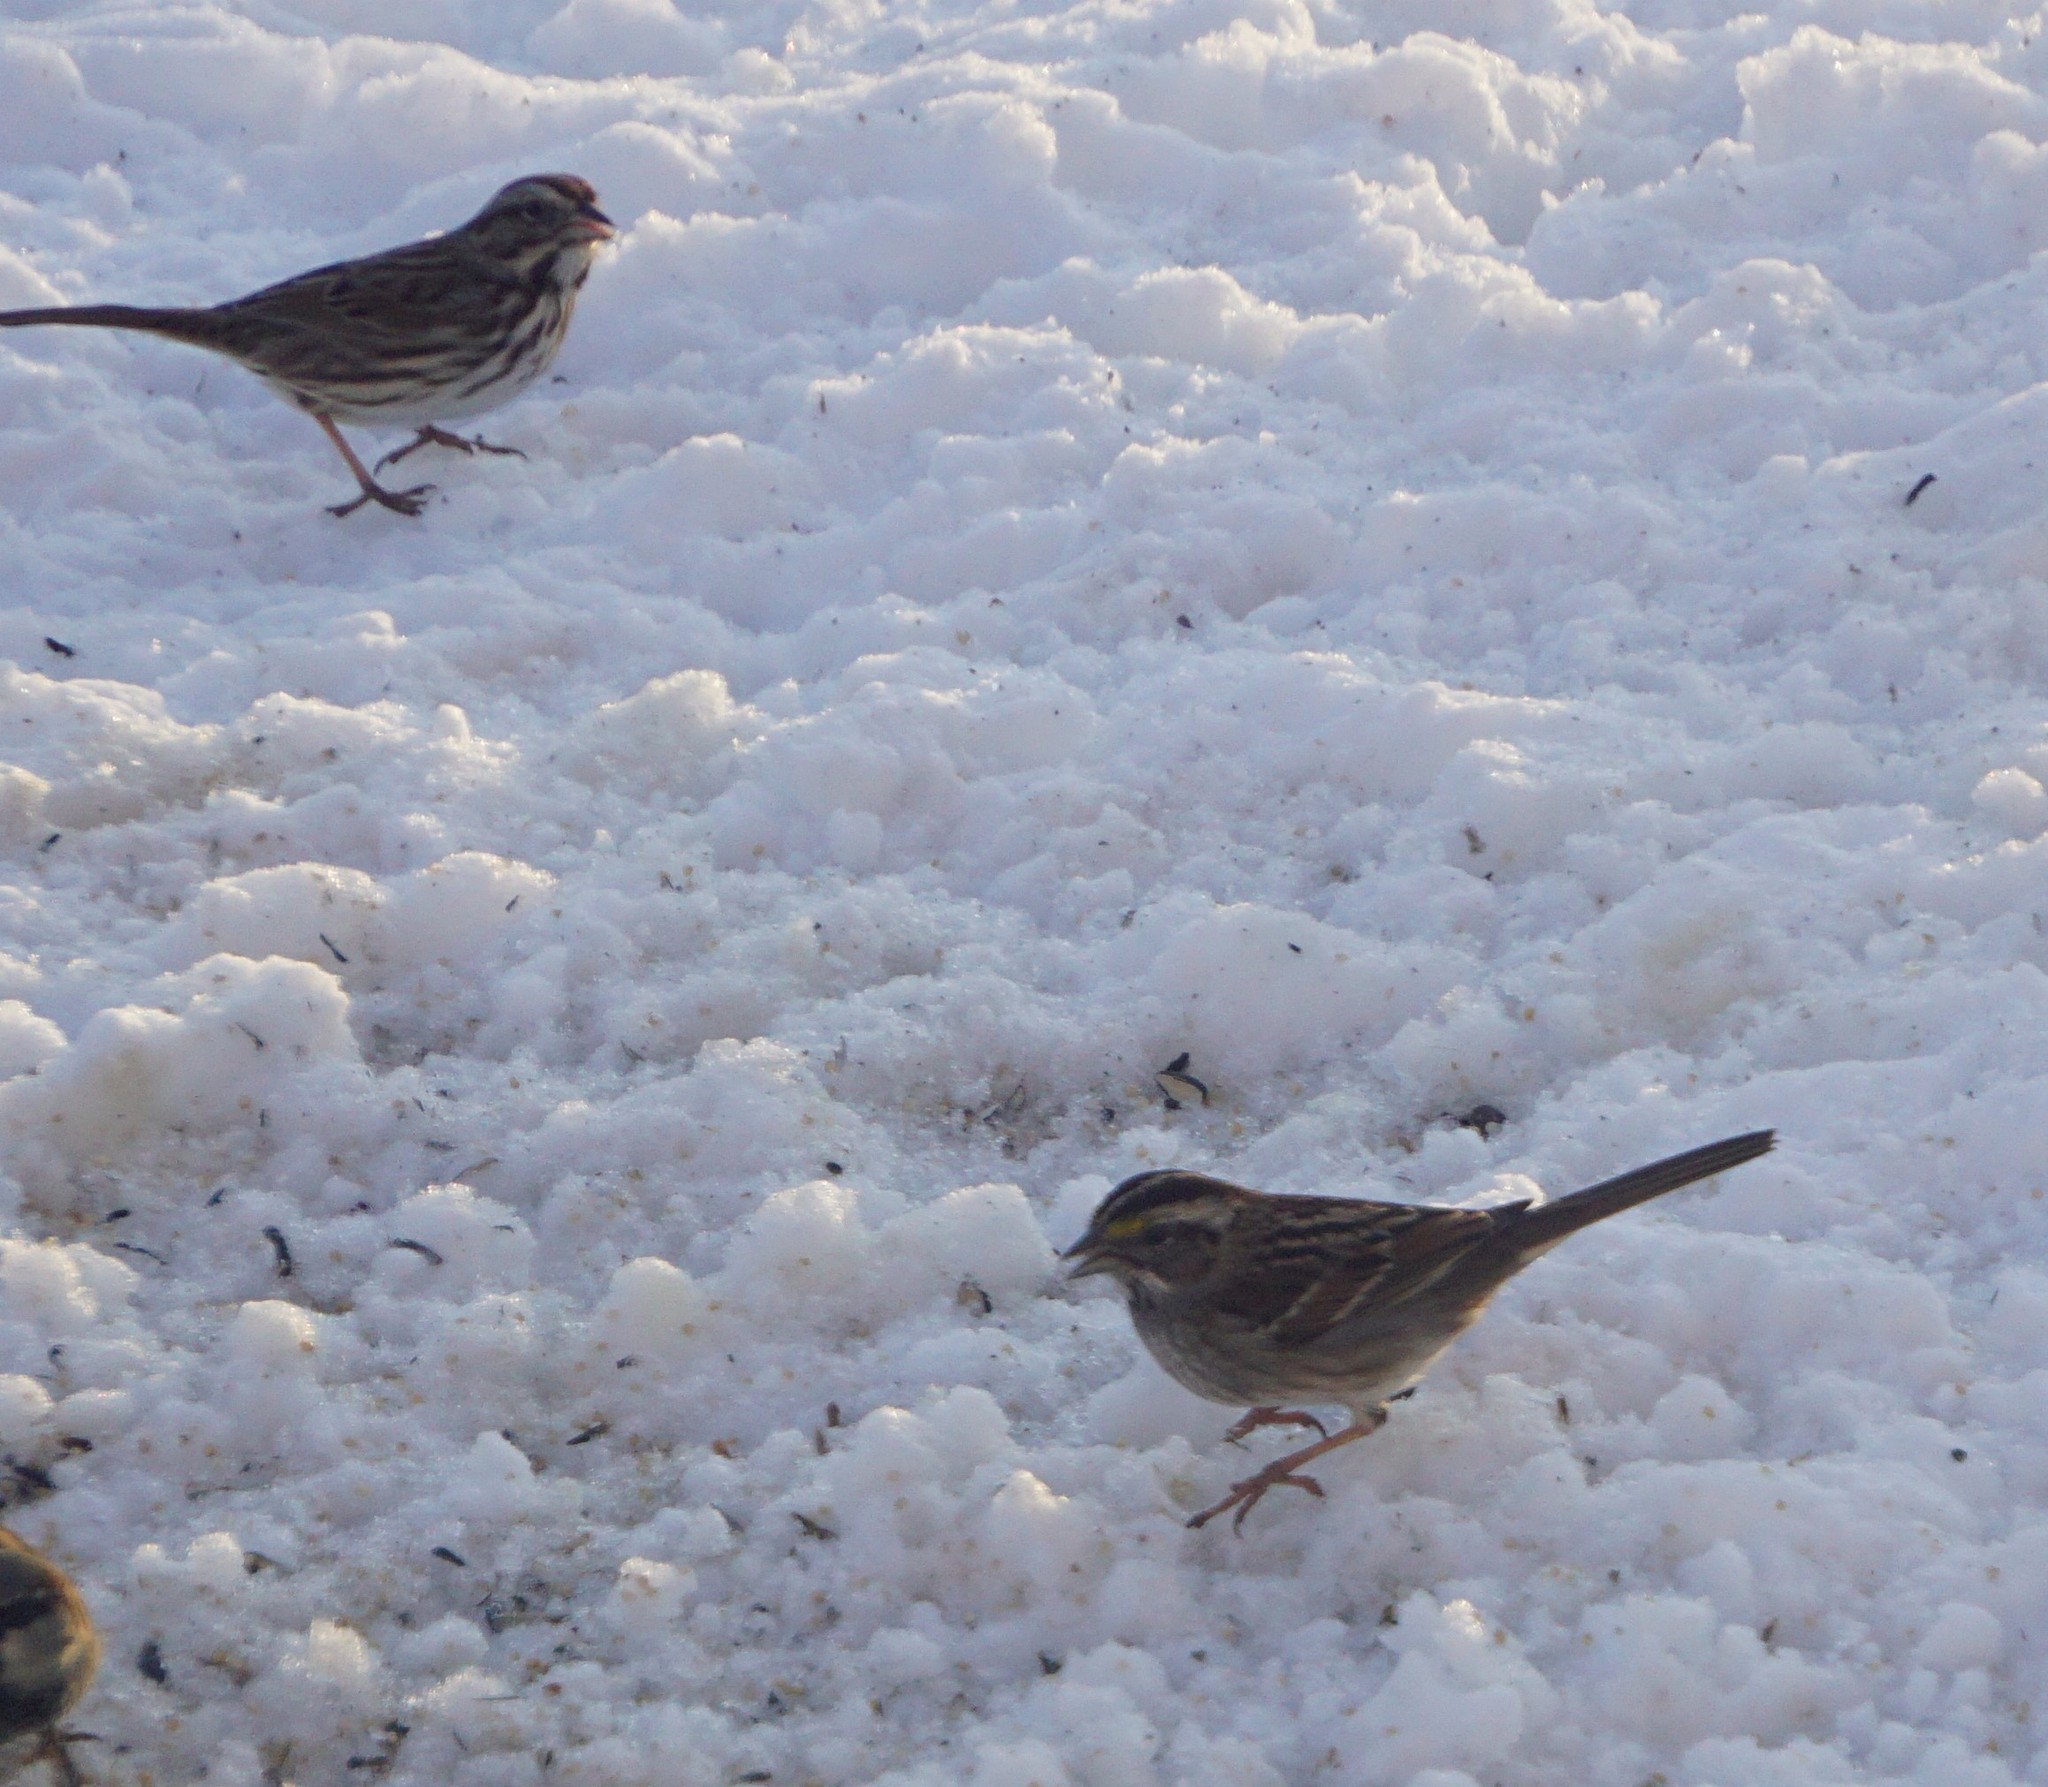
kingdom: Animalia
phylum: Chordata
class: Aves
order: Passeriformes
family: Passerellidae
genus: Zonotrichia
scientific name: Zonotrichia albicollis
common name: White-throated sparrow
